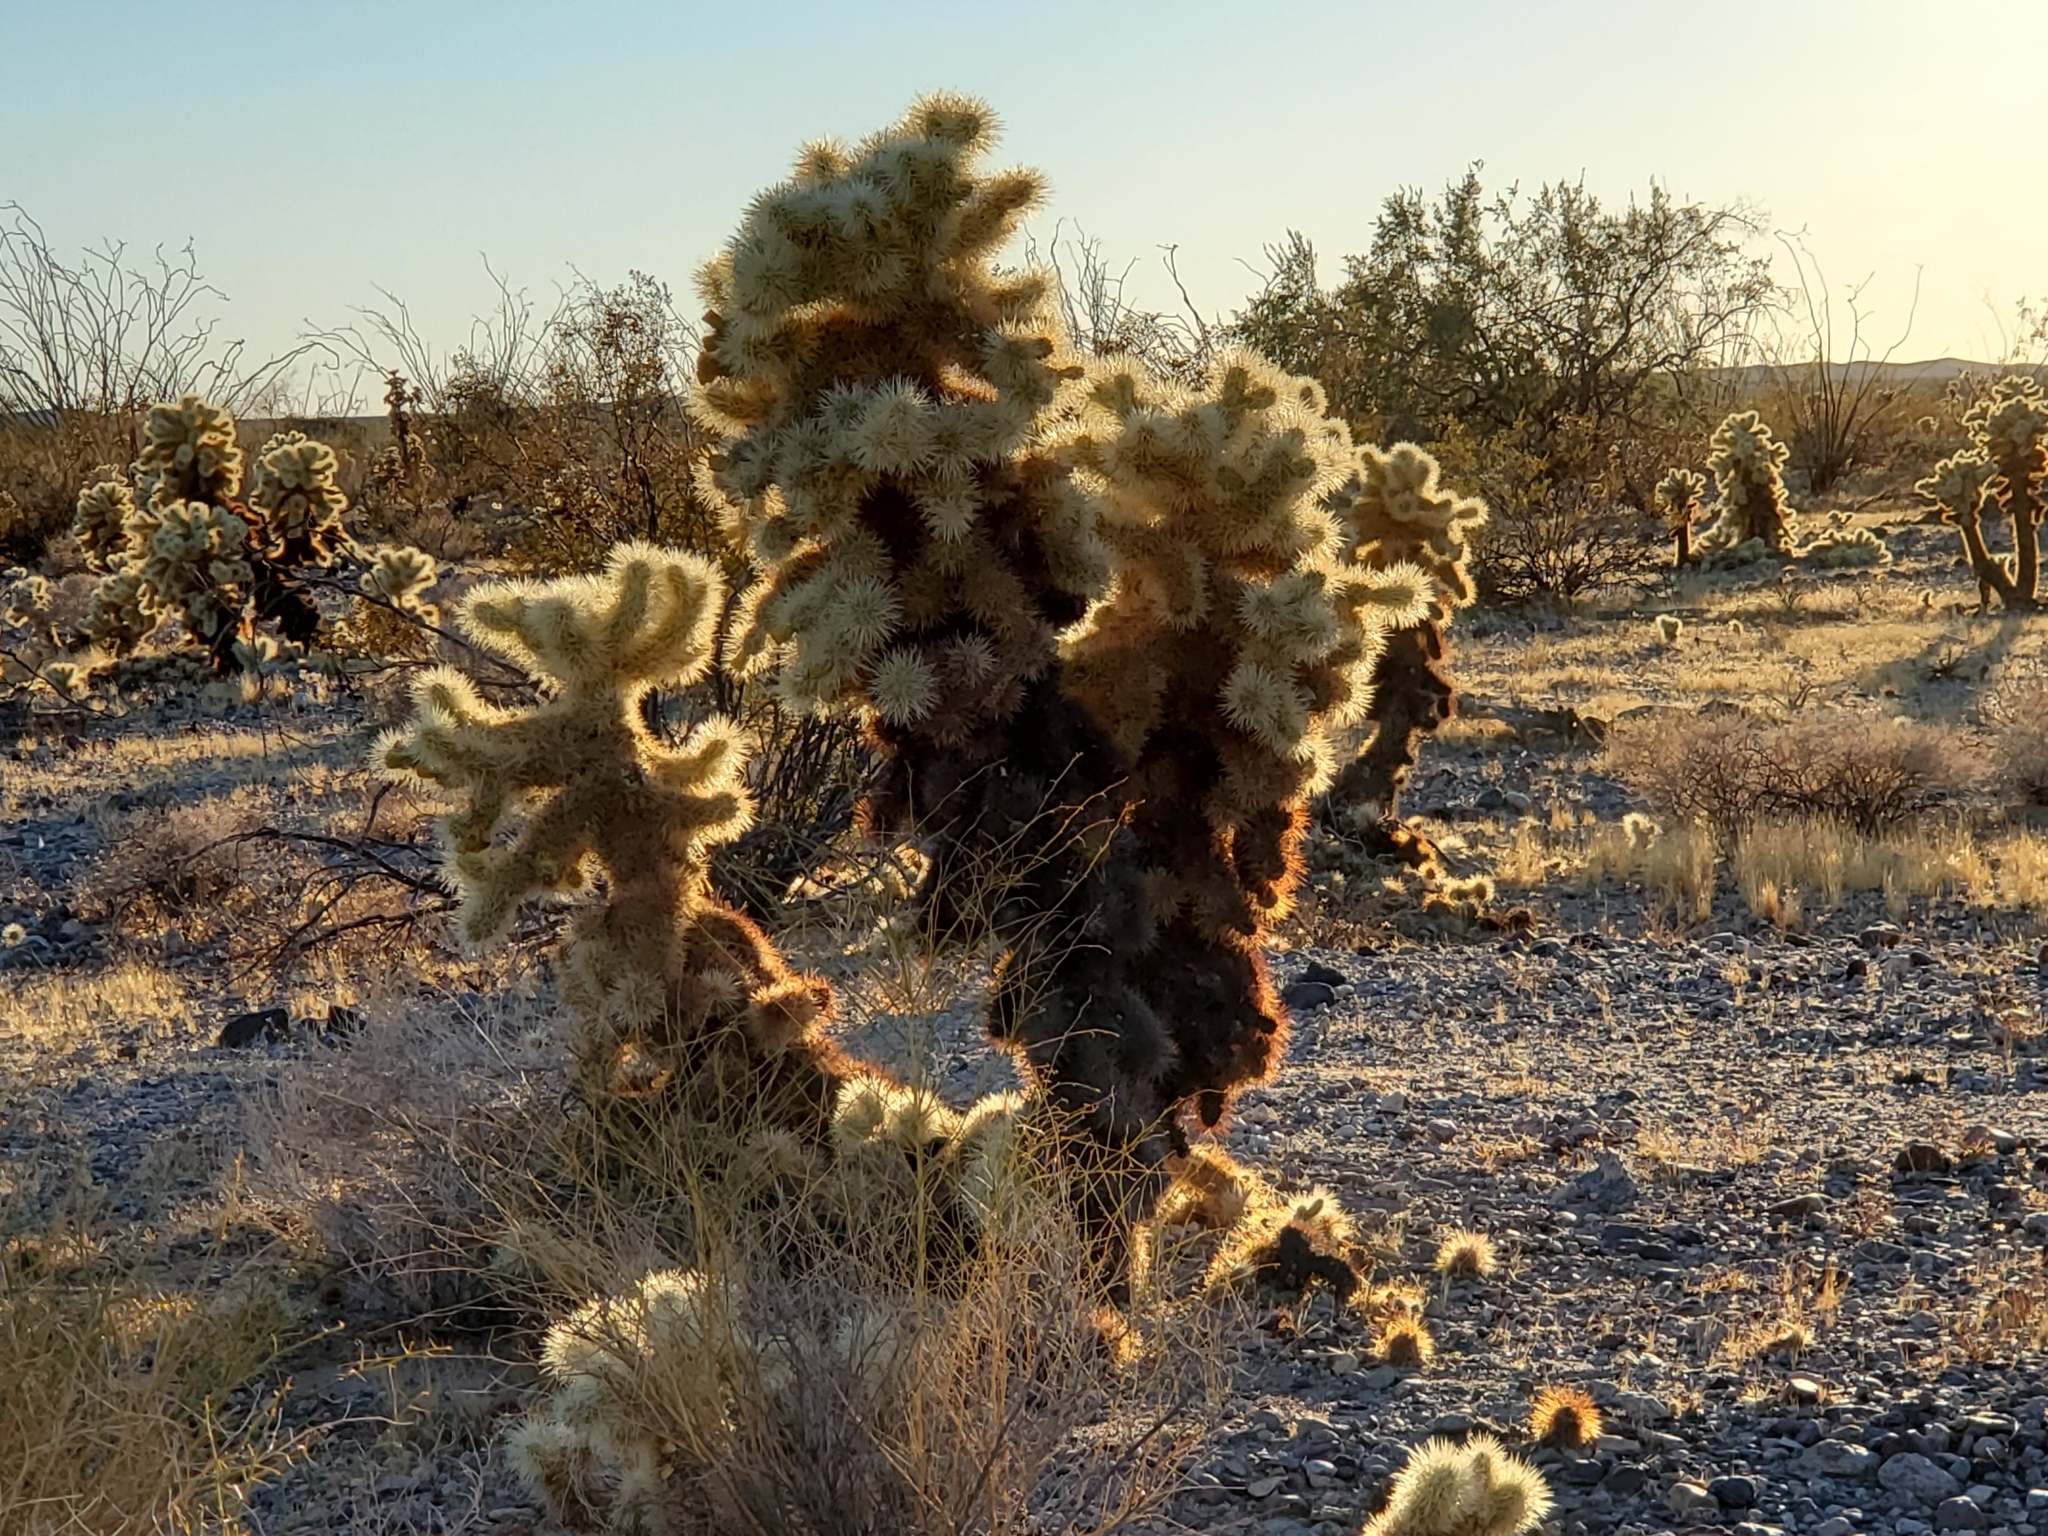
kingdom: Plantae
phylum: Tracheophyta
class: Magnoliopsida
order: Caryophyllales
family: Cactaceae
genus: Cylindropuntia
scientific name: Cylindropuntia fosbergii
